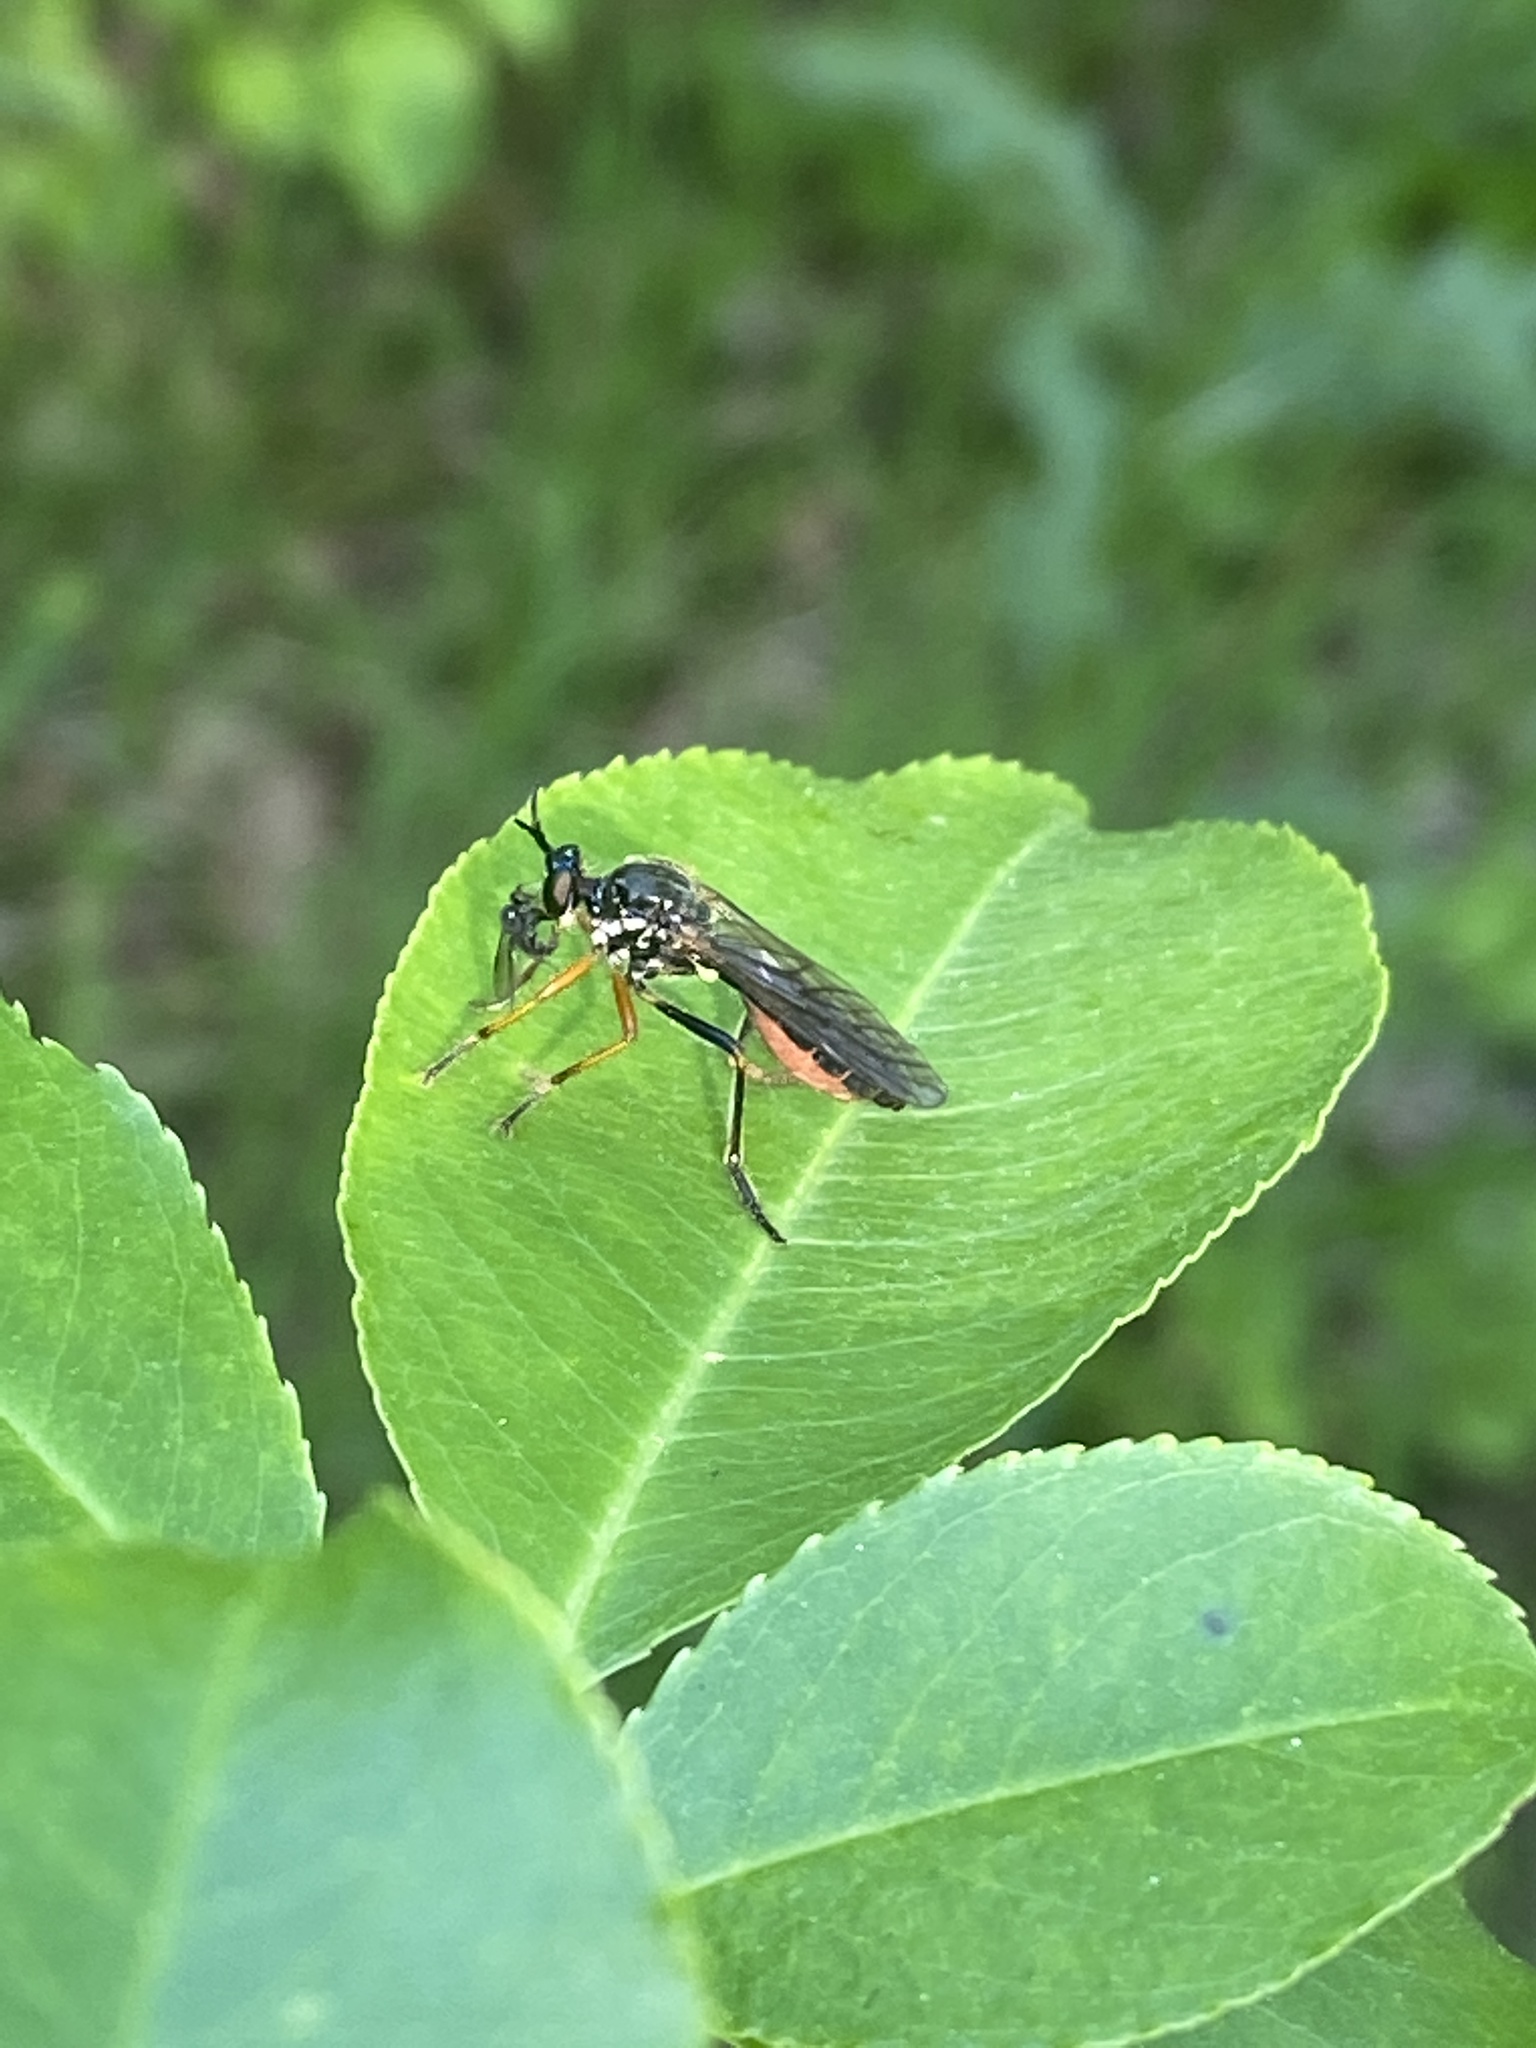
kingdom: Animalia
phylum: Arthropoda
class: Insecta
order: Diptera
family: Asilidae
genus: Dioctria
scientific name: Dioctria rufipes
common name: Common red-legged robberfly
